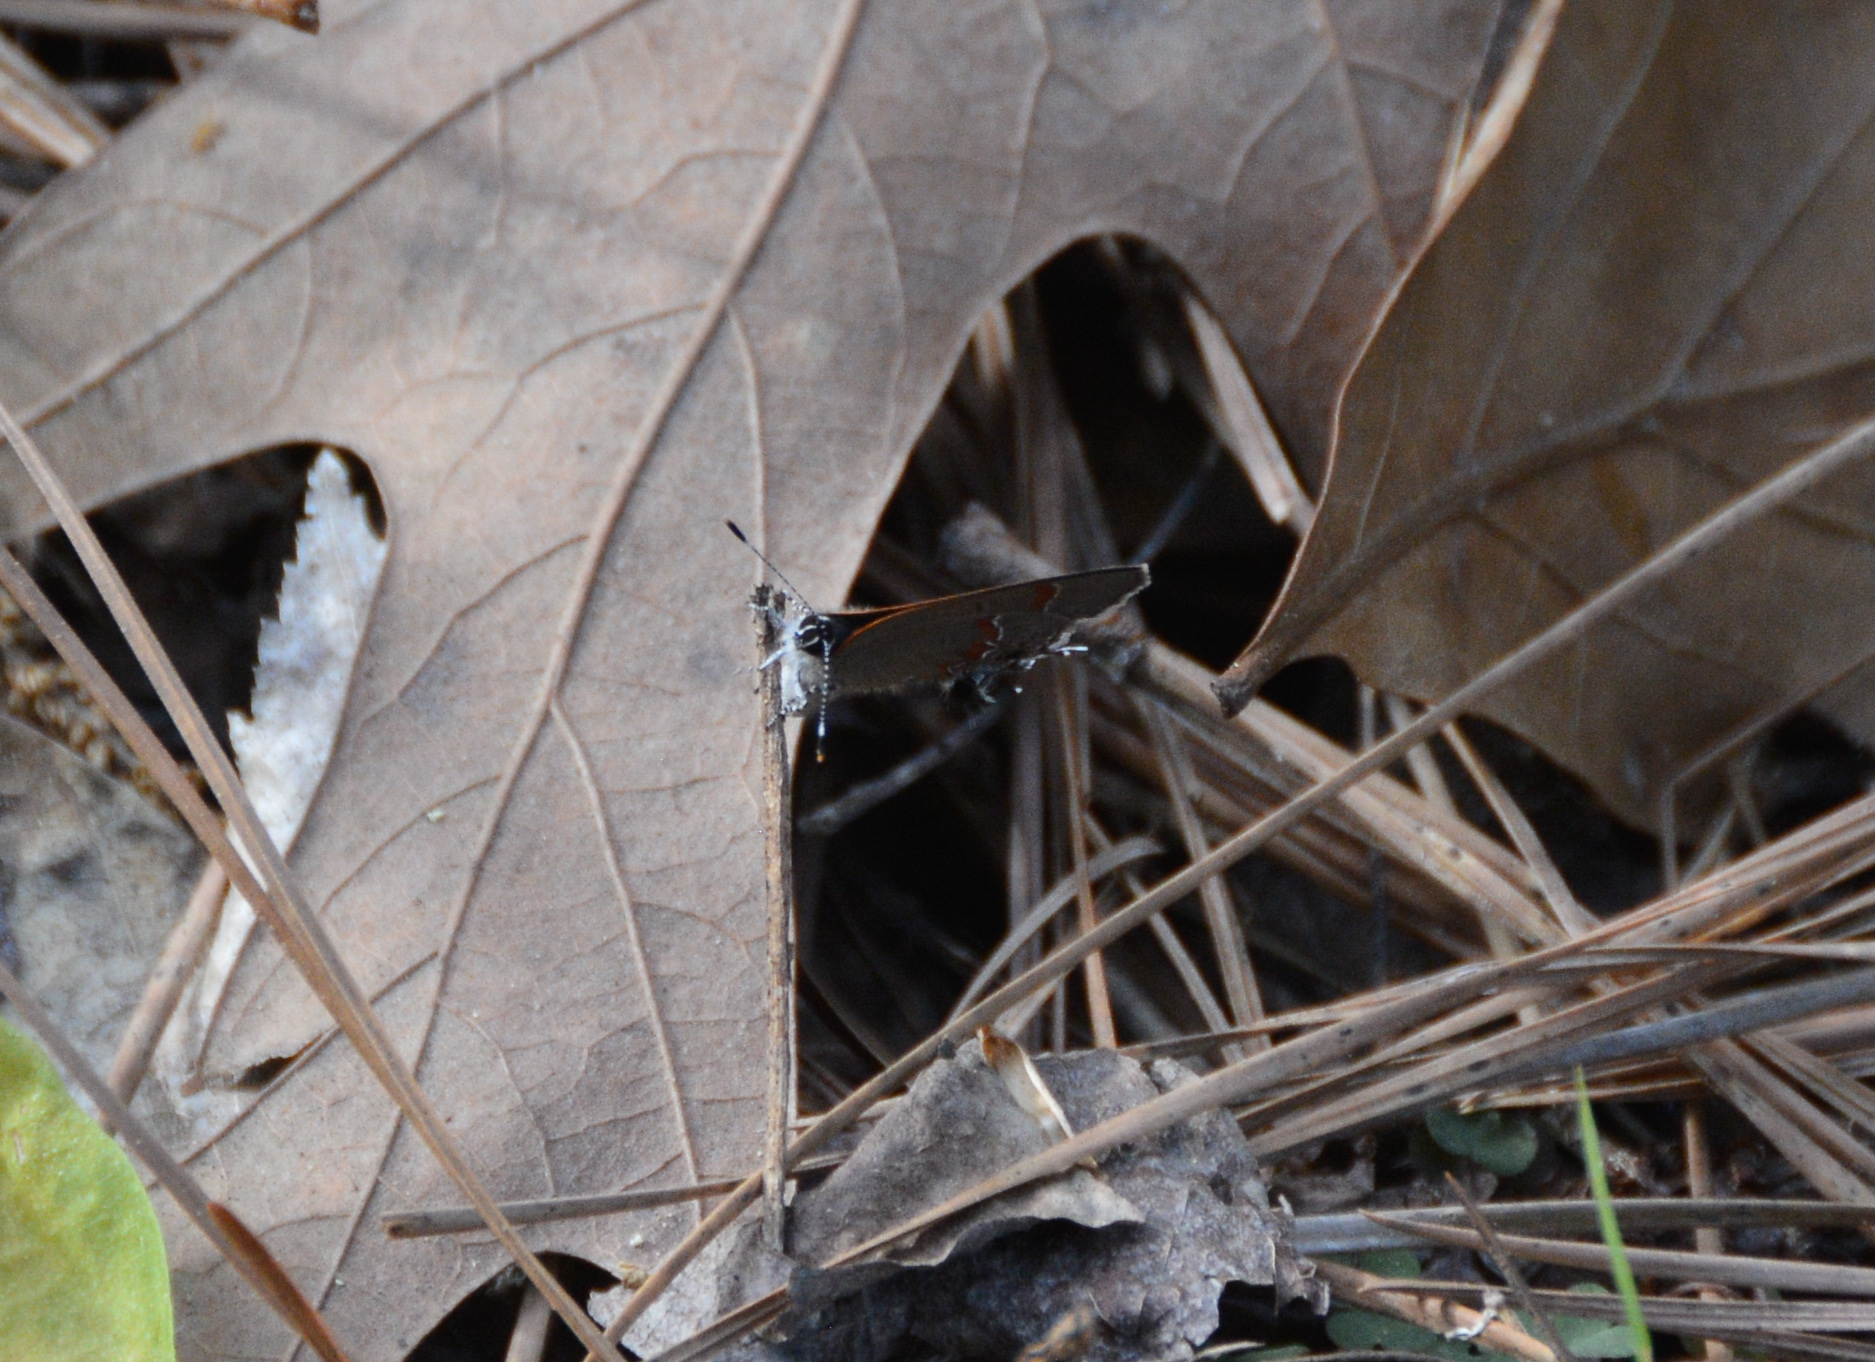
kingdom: Animalia
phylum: Arthropoda
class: Insecta
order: Lepidoptera
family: Lycaenidae
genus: Calycopis
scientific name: Calycopis cecrops
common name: Red-banded hairstreak
